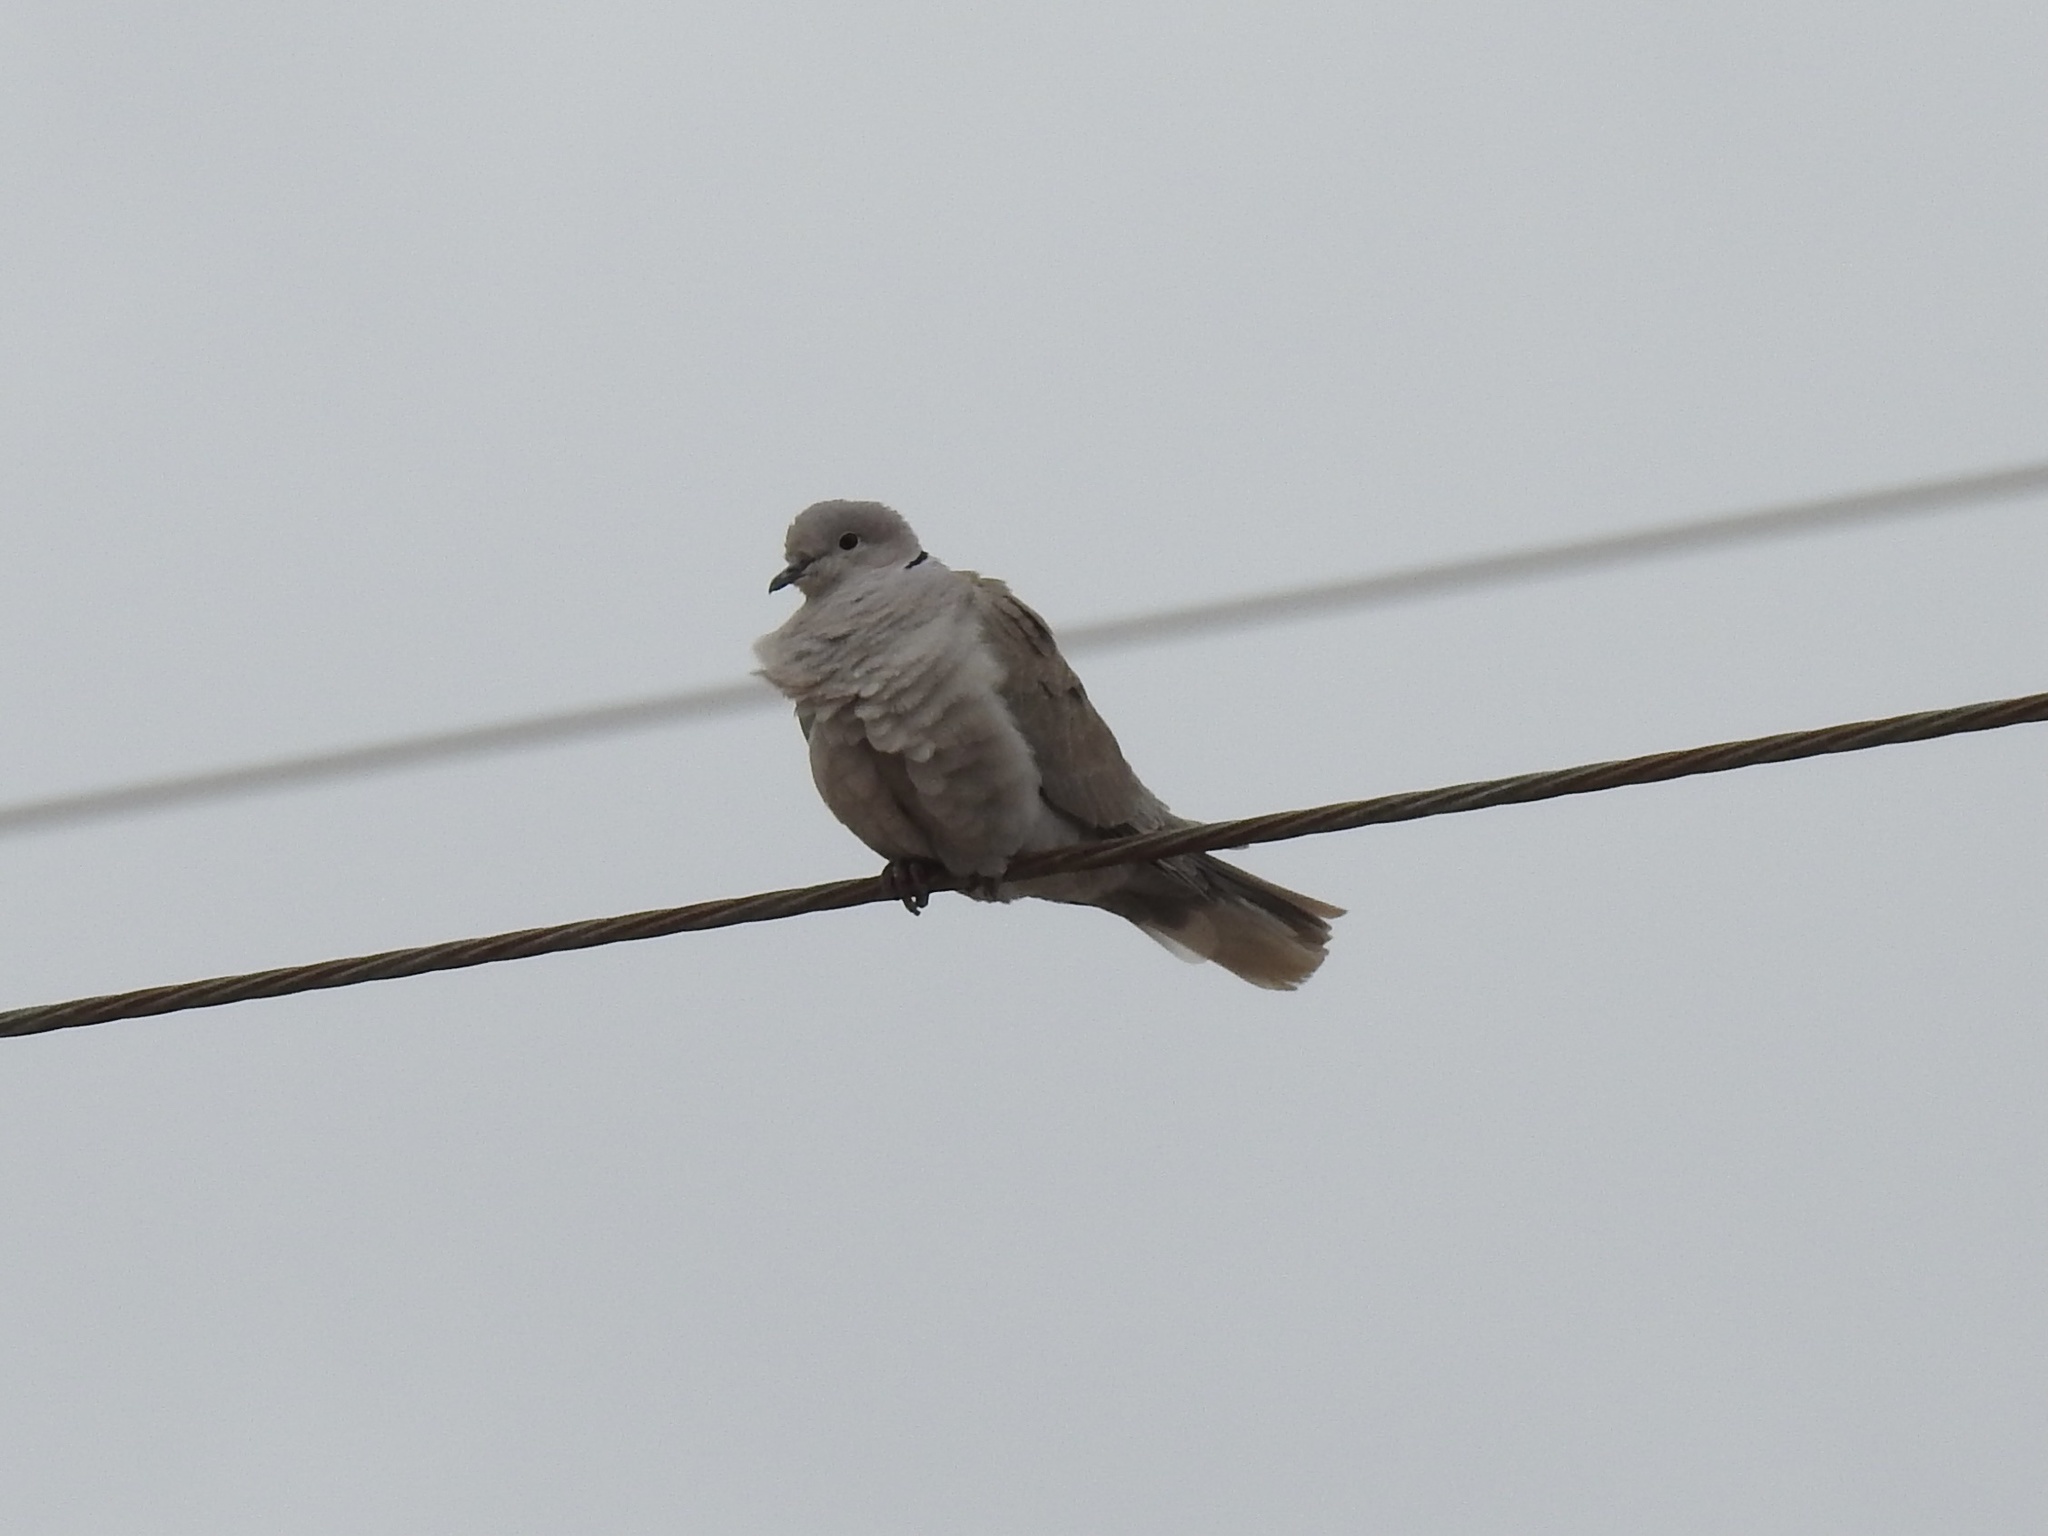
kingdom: Animalia
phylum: Chordata
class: Aves
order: Columbiformes
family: Columbidae
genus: Streptopelia
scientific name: Streptopelia decaocto
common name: Eurasian collared dove
